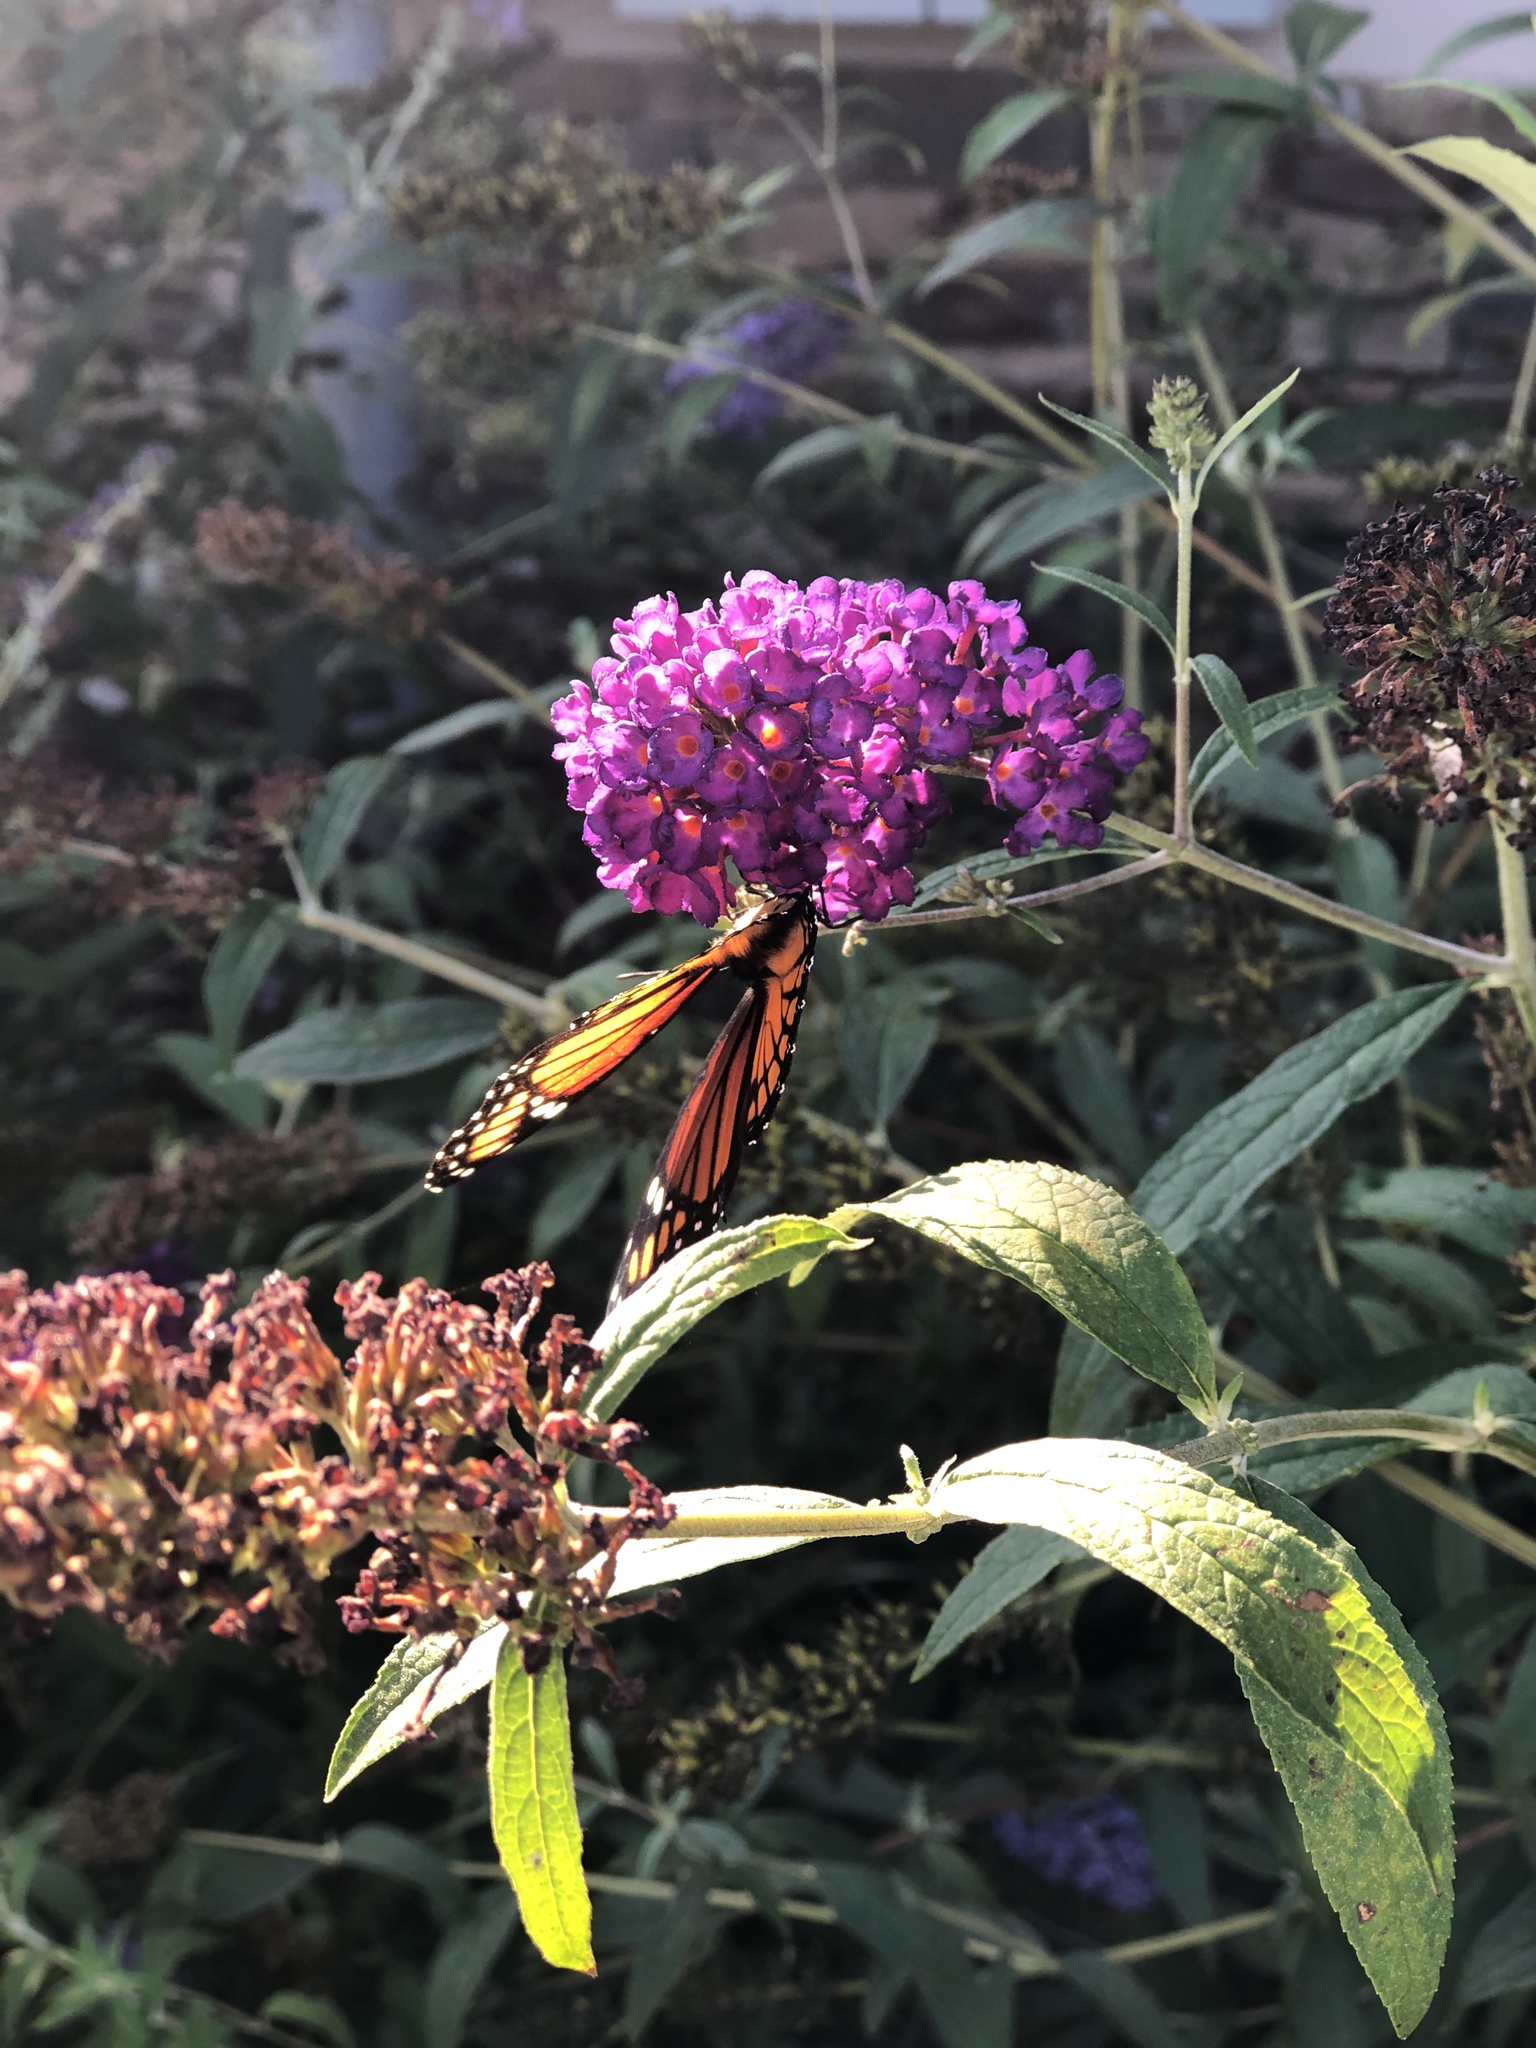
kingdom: Animalia
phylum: Arthropoda
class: Insecta
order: Lepidoptera
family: Nymphalidae
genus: Danaus
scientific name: Danaus plexippus
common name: Monarch
